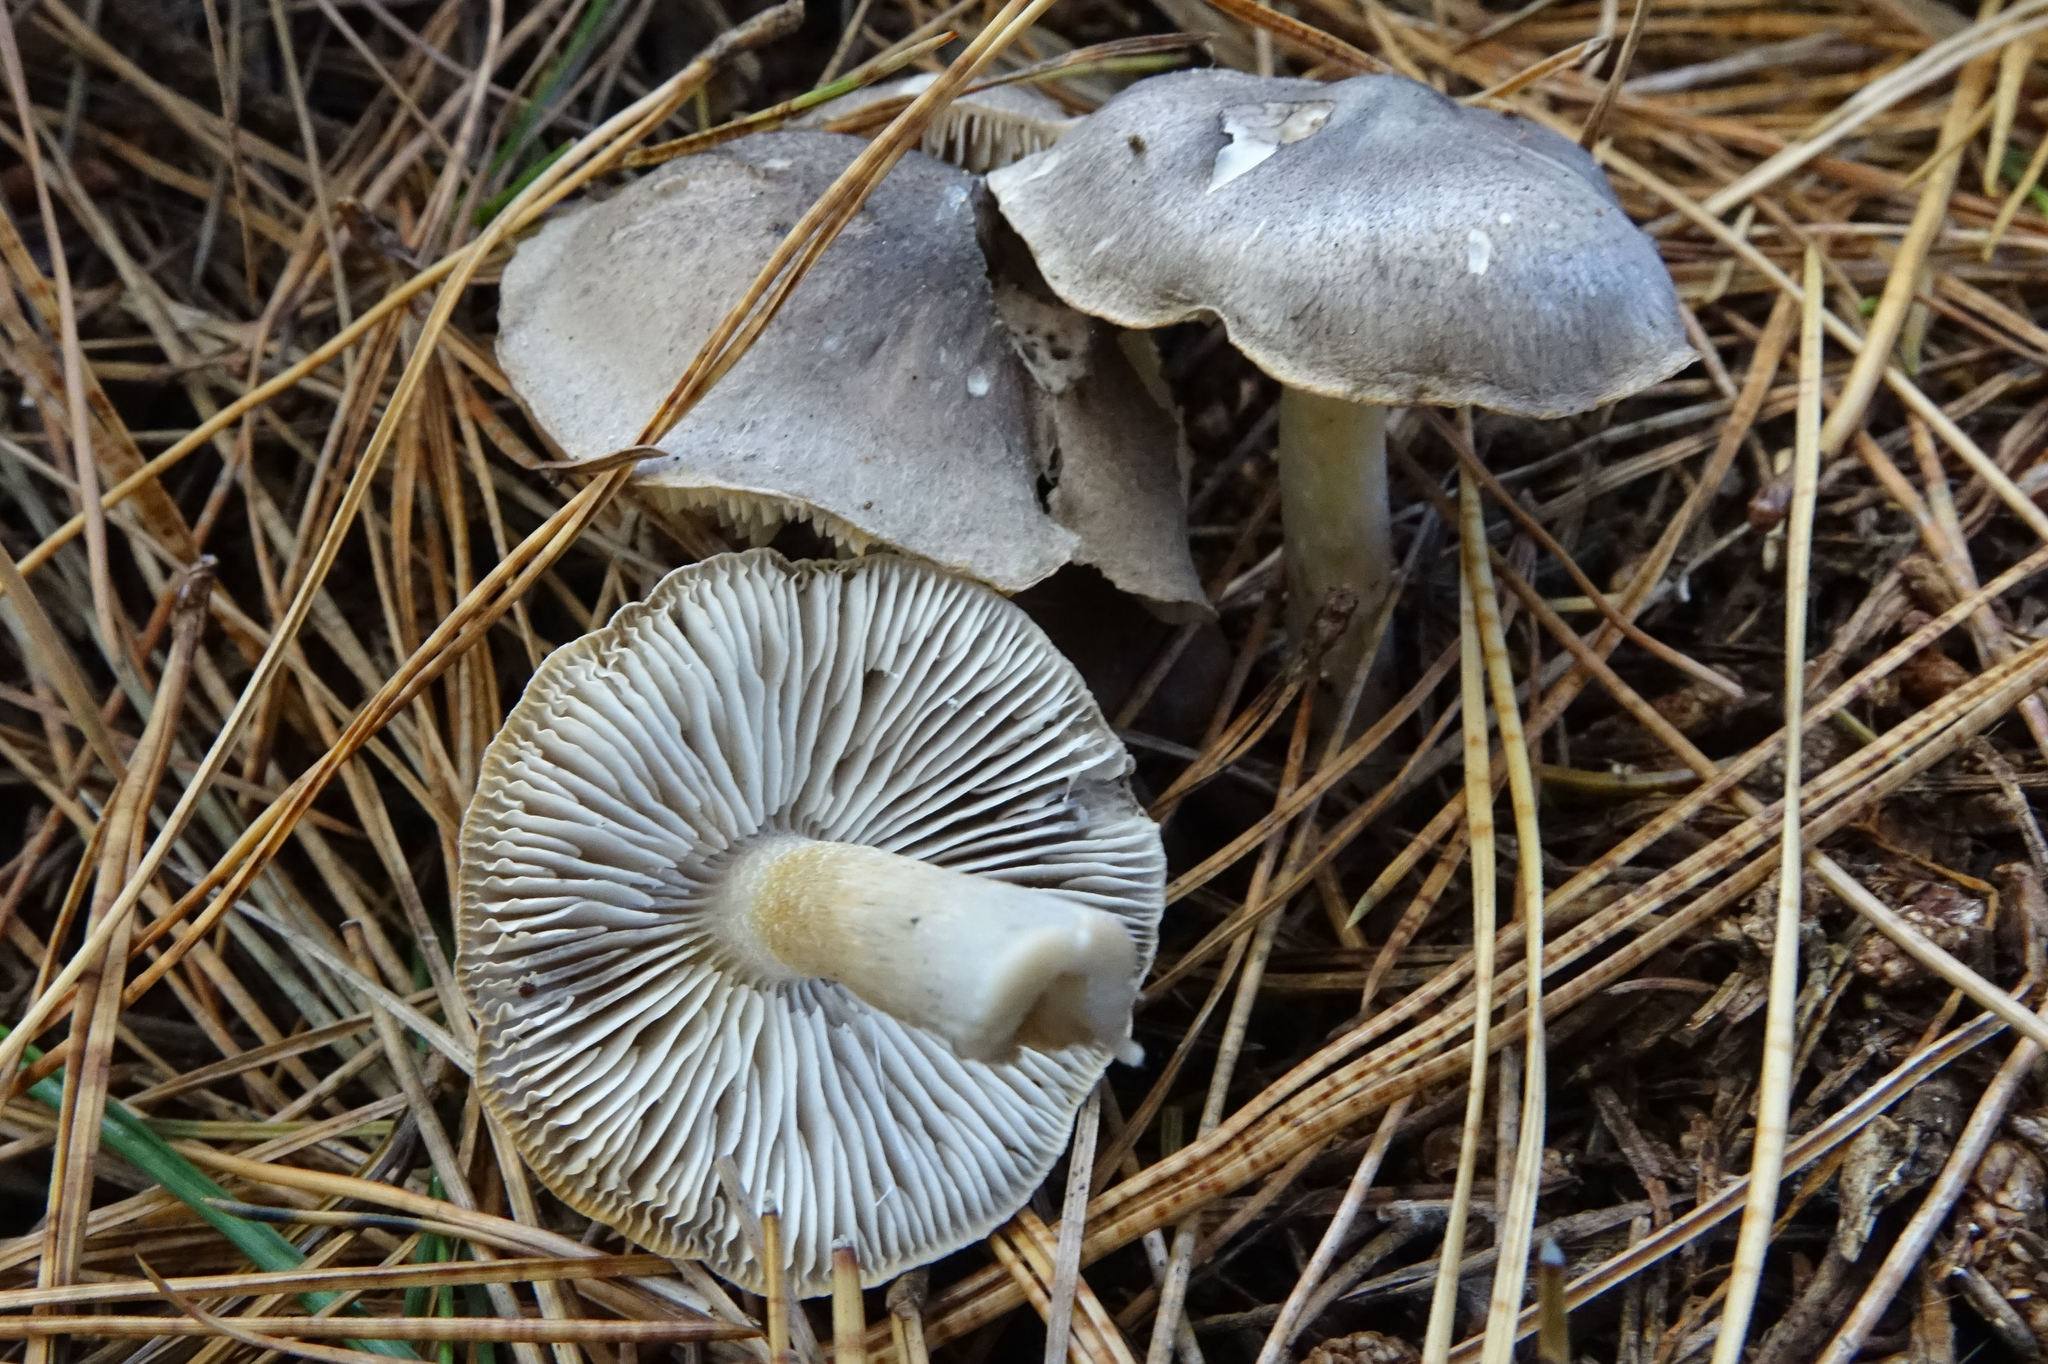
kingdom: Fungi
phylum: Basidiomycota
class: Agaricomycetes
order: Agaricales
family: Tricholomataceae
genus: Tricholoma
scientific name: Tricholoma terreum
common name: Grey knight
